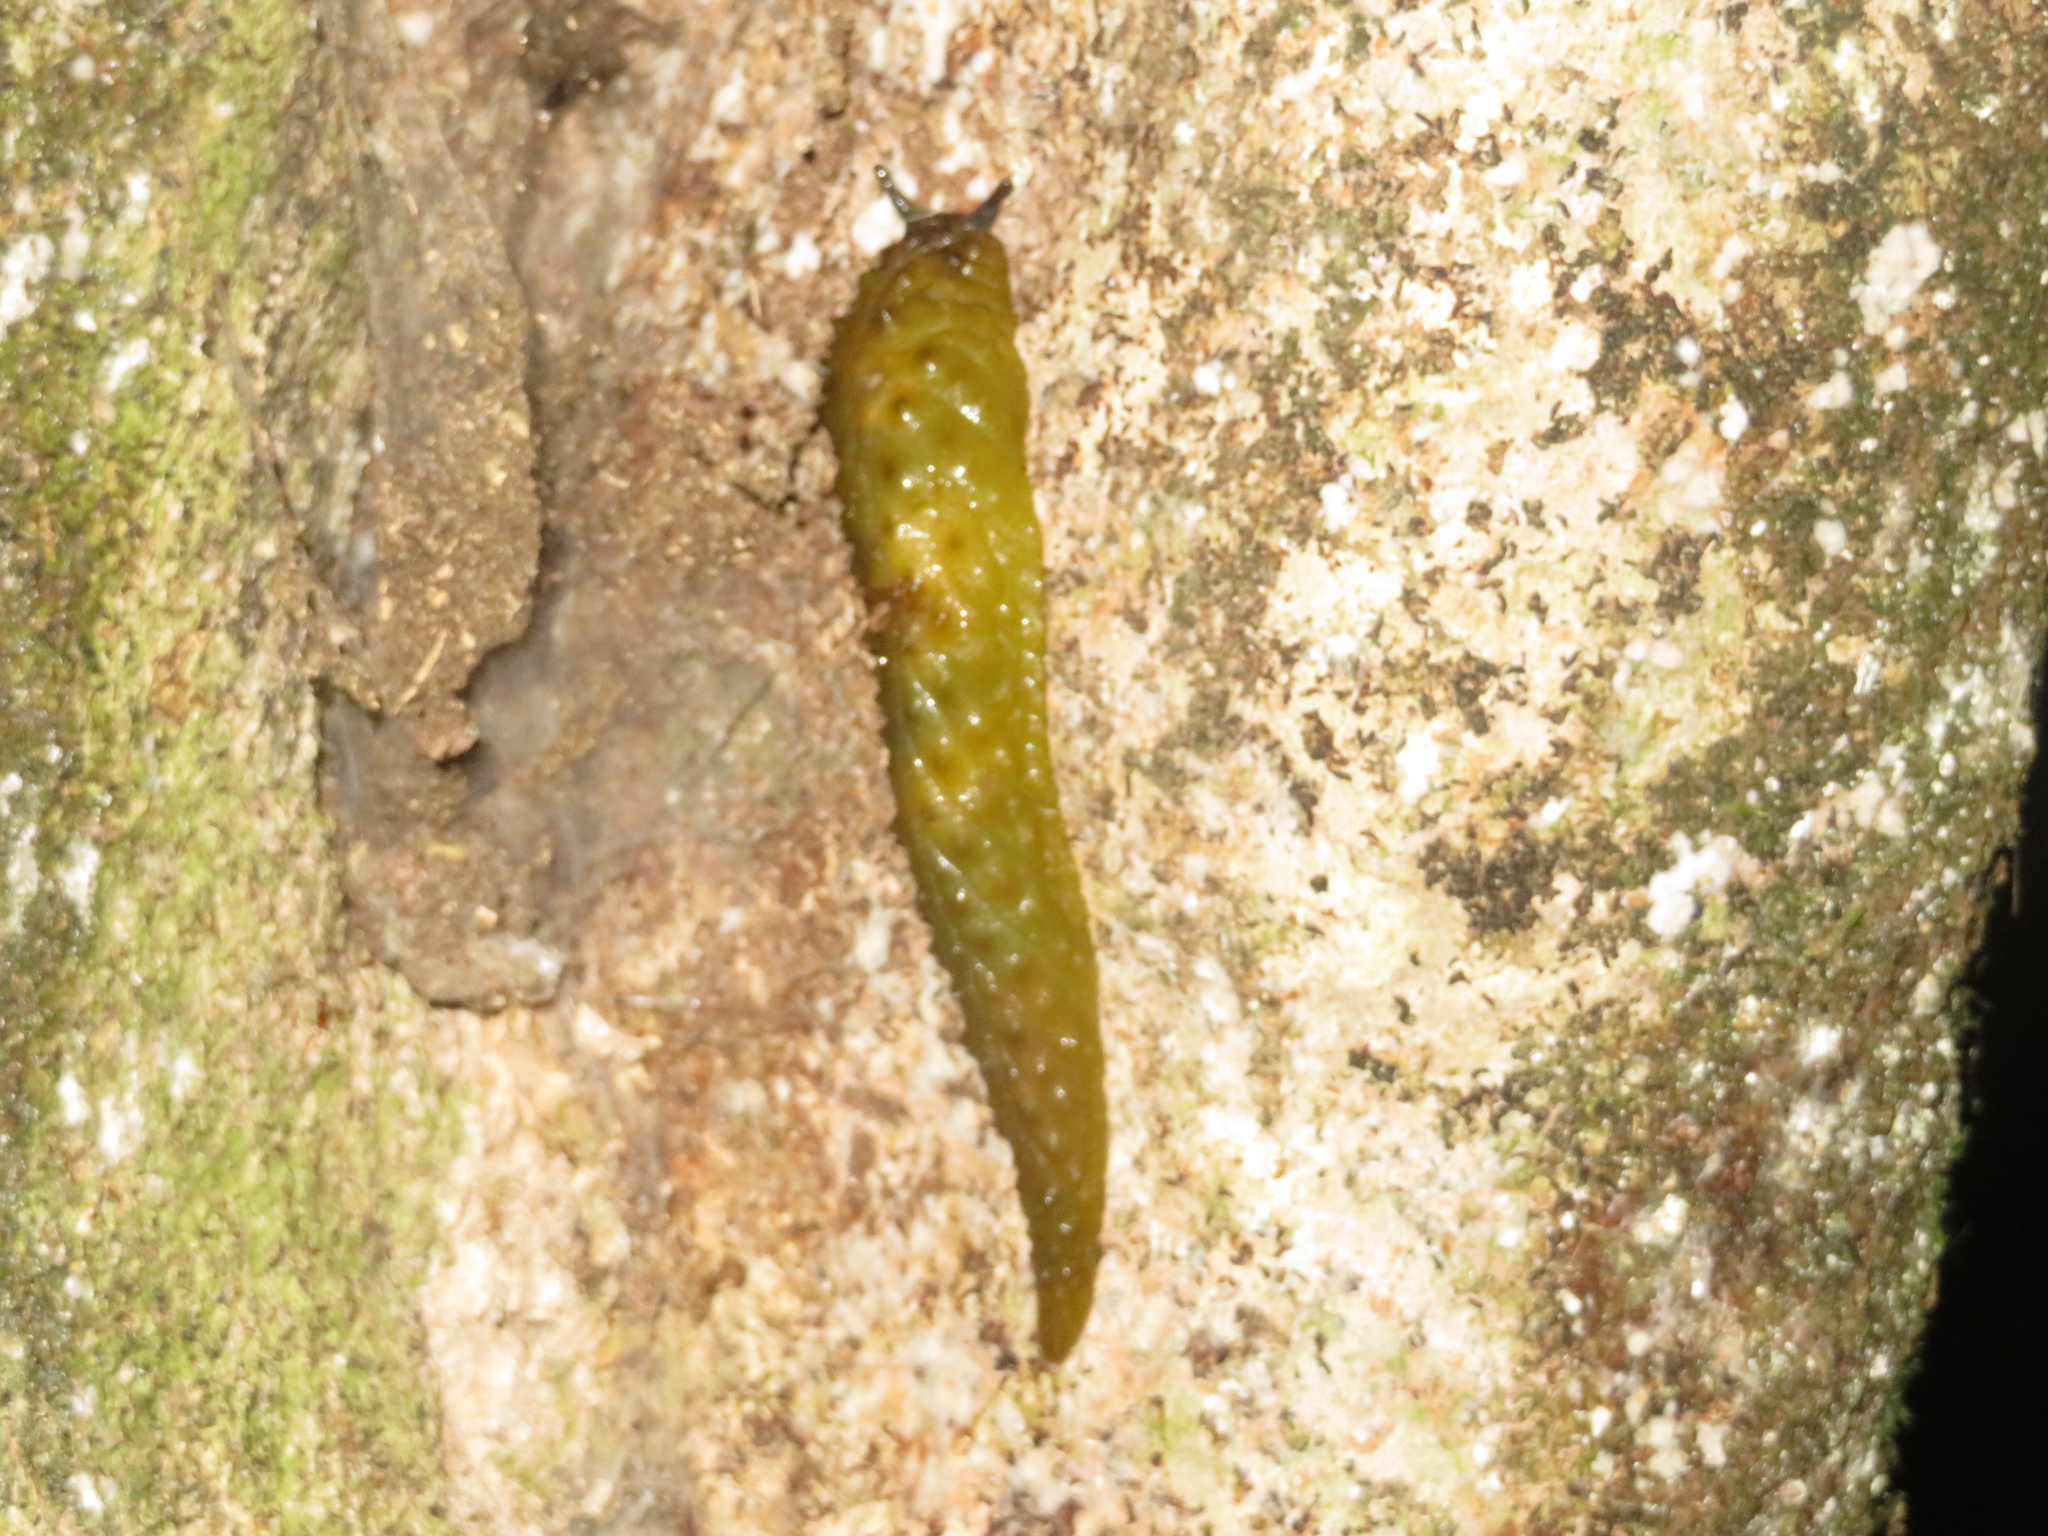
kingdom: Animalia
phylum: Mollusca
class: Gastropoda
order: Stylommatophora
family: Athoracophoridae
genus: Athoracophorus
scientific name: Athoracophorus papillatus
